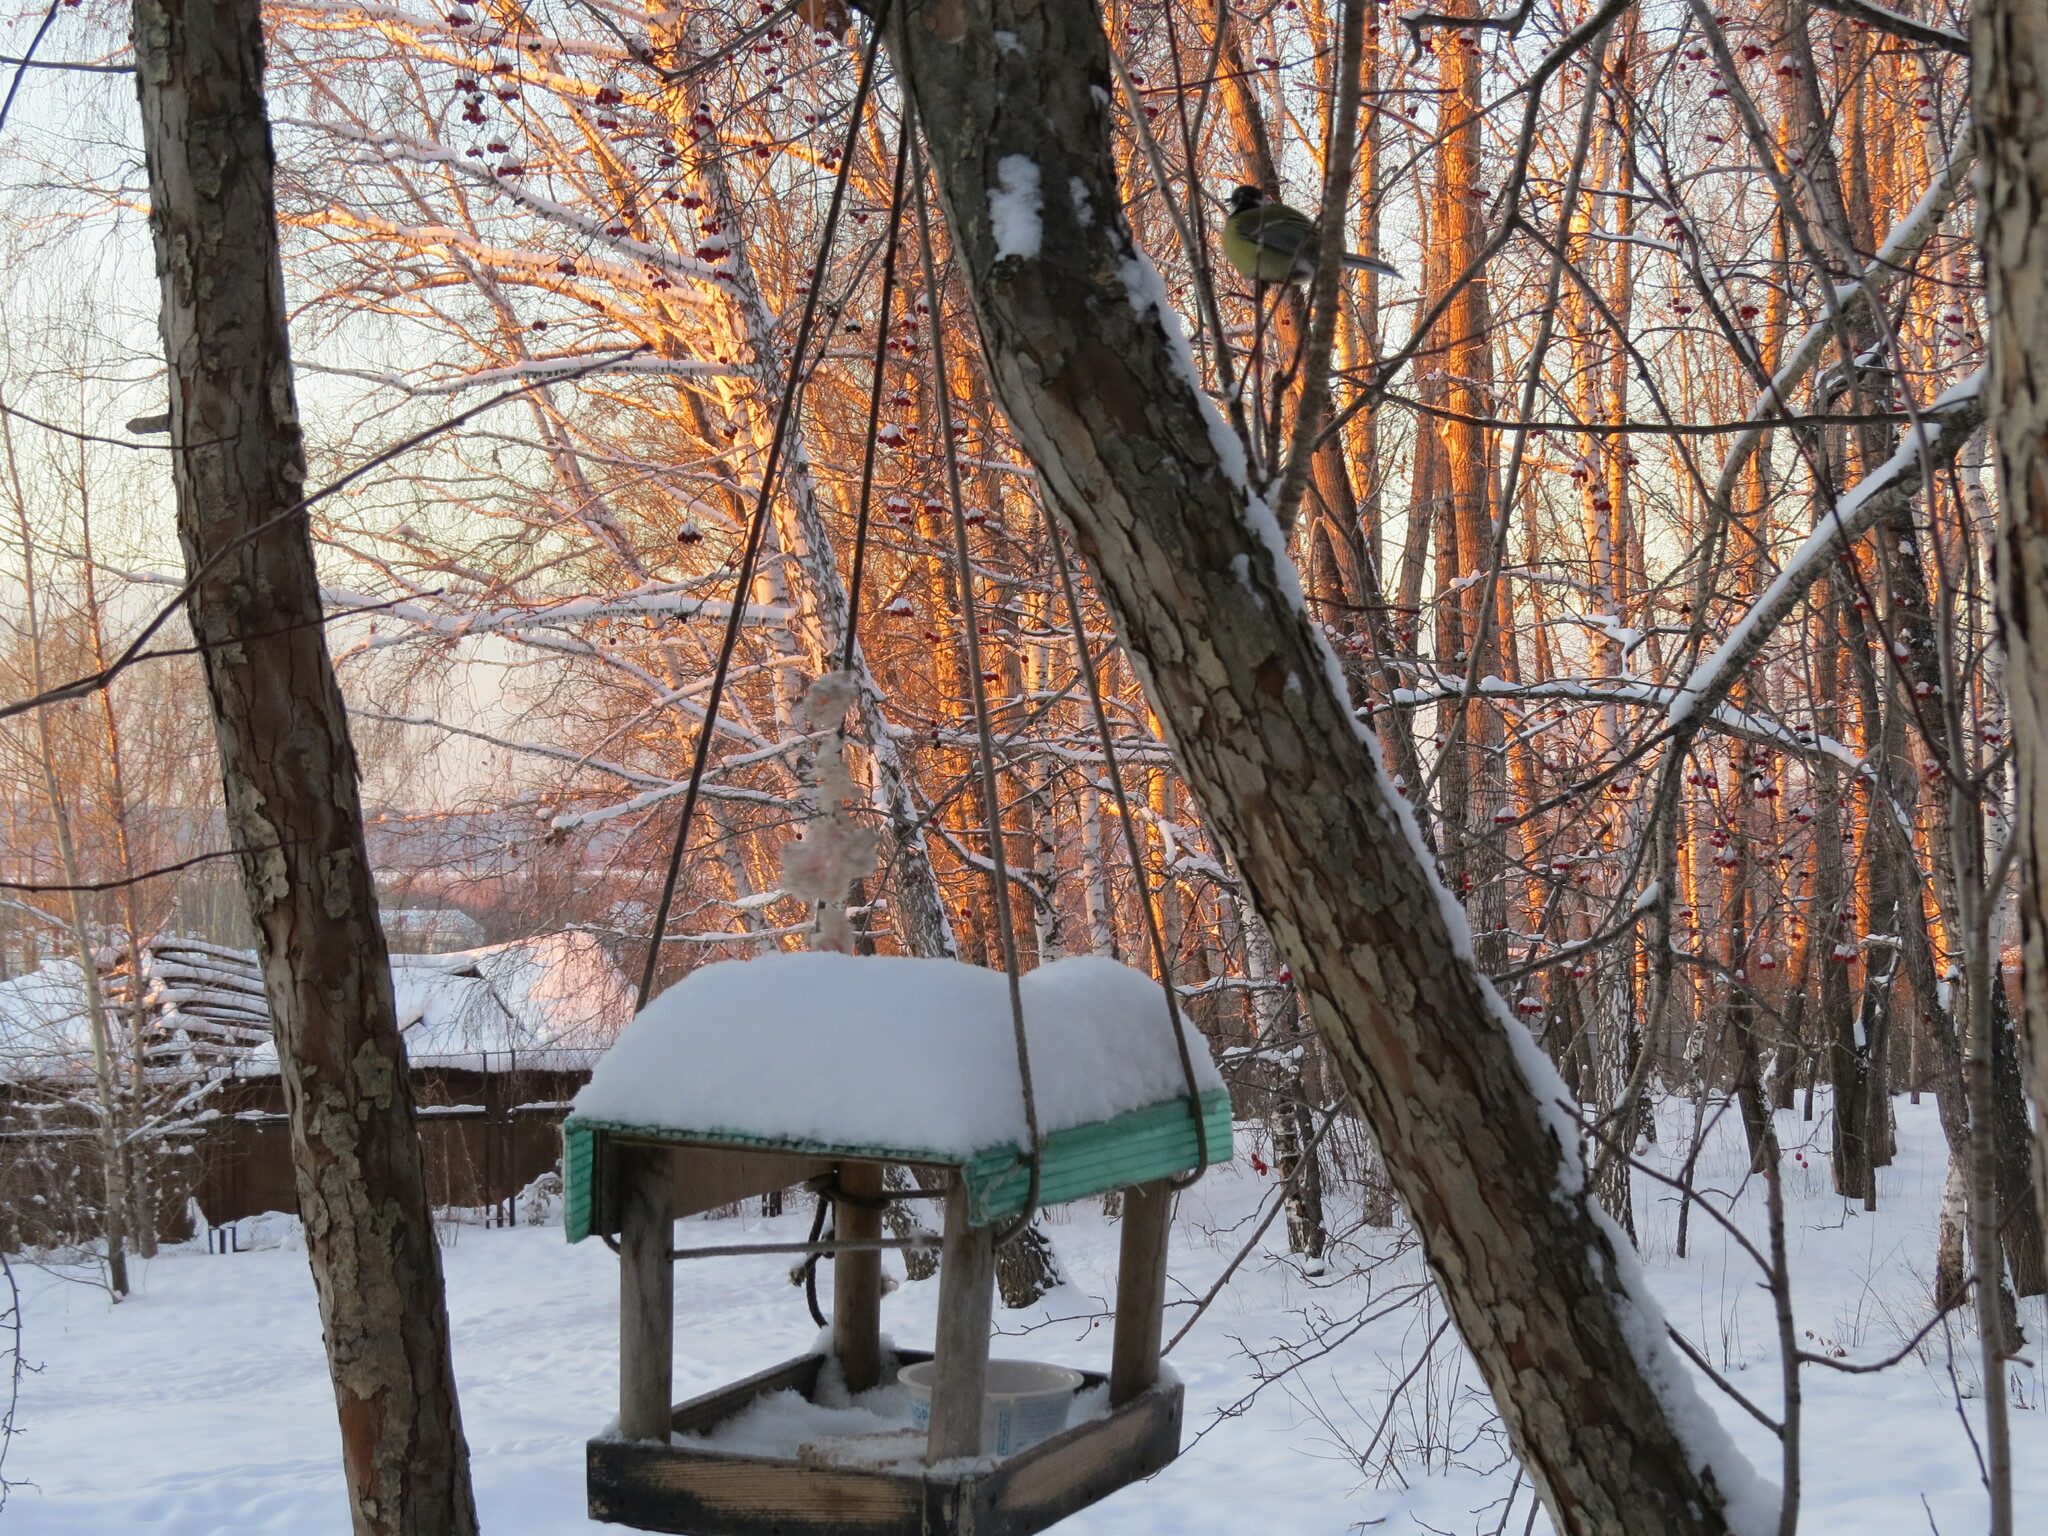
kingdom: Animalia
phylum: Chordata
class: Aves
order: Passeriformes
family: Paridae
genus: Parus
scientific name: Parus major
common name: Great tit
